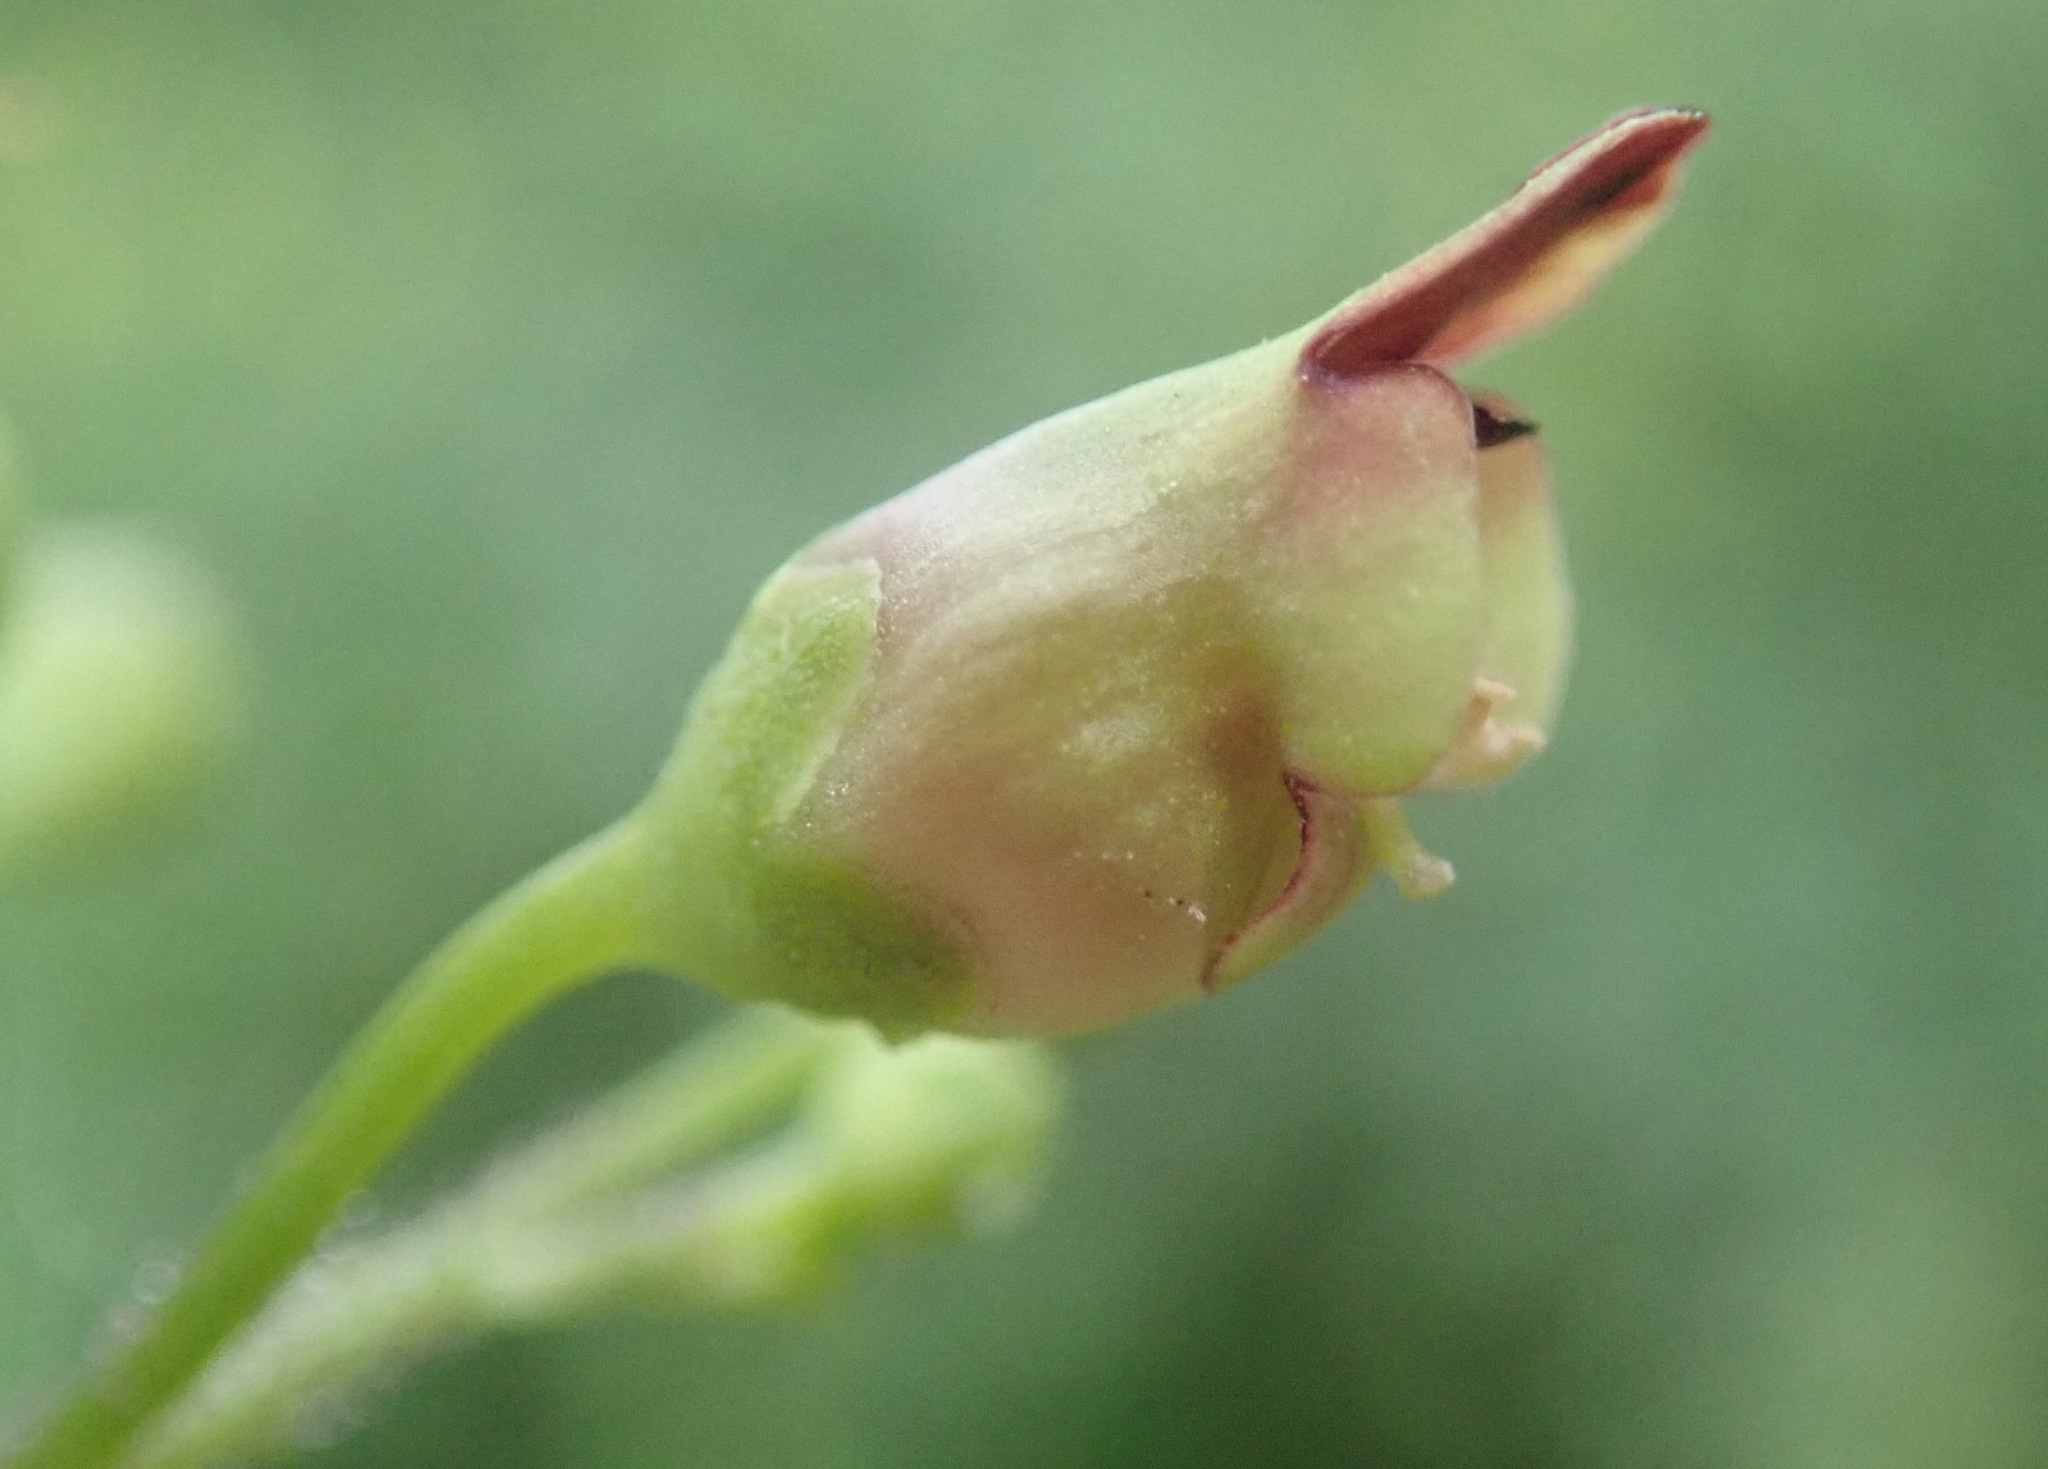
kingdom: Plantae
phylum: Tracheophyta
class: Magnoliopsida
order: Lamiales
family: Scrophulariaceae
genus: Scrophularia
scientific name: Scrophularia nodosa
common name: Common figwort
